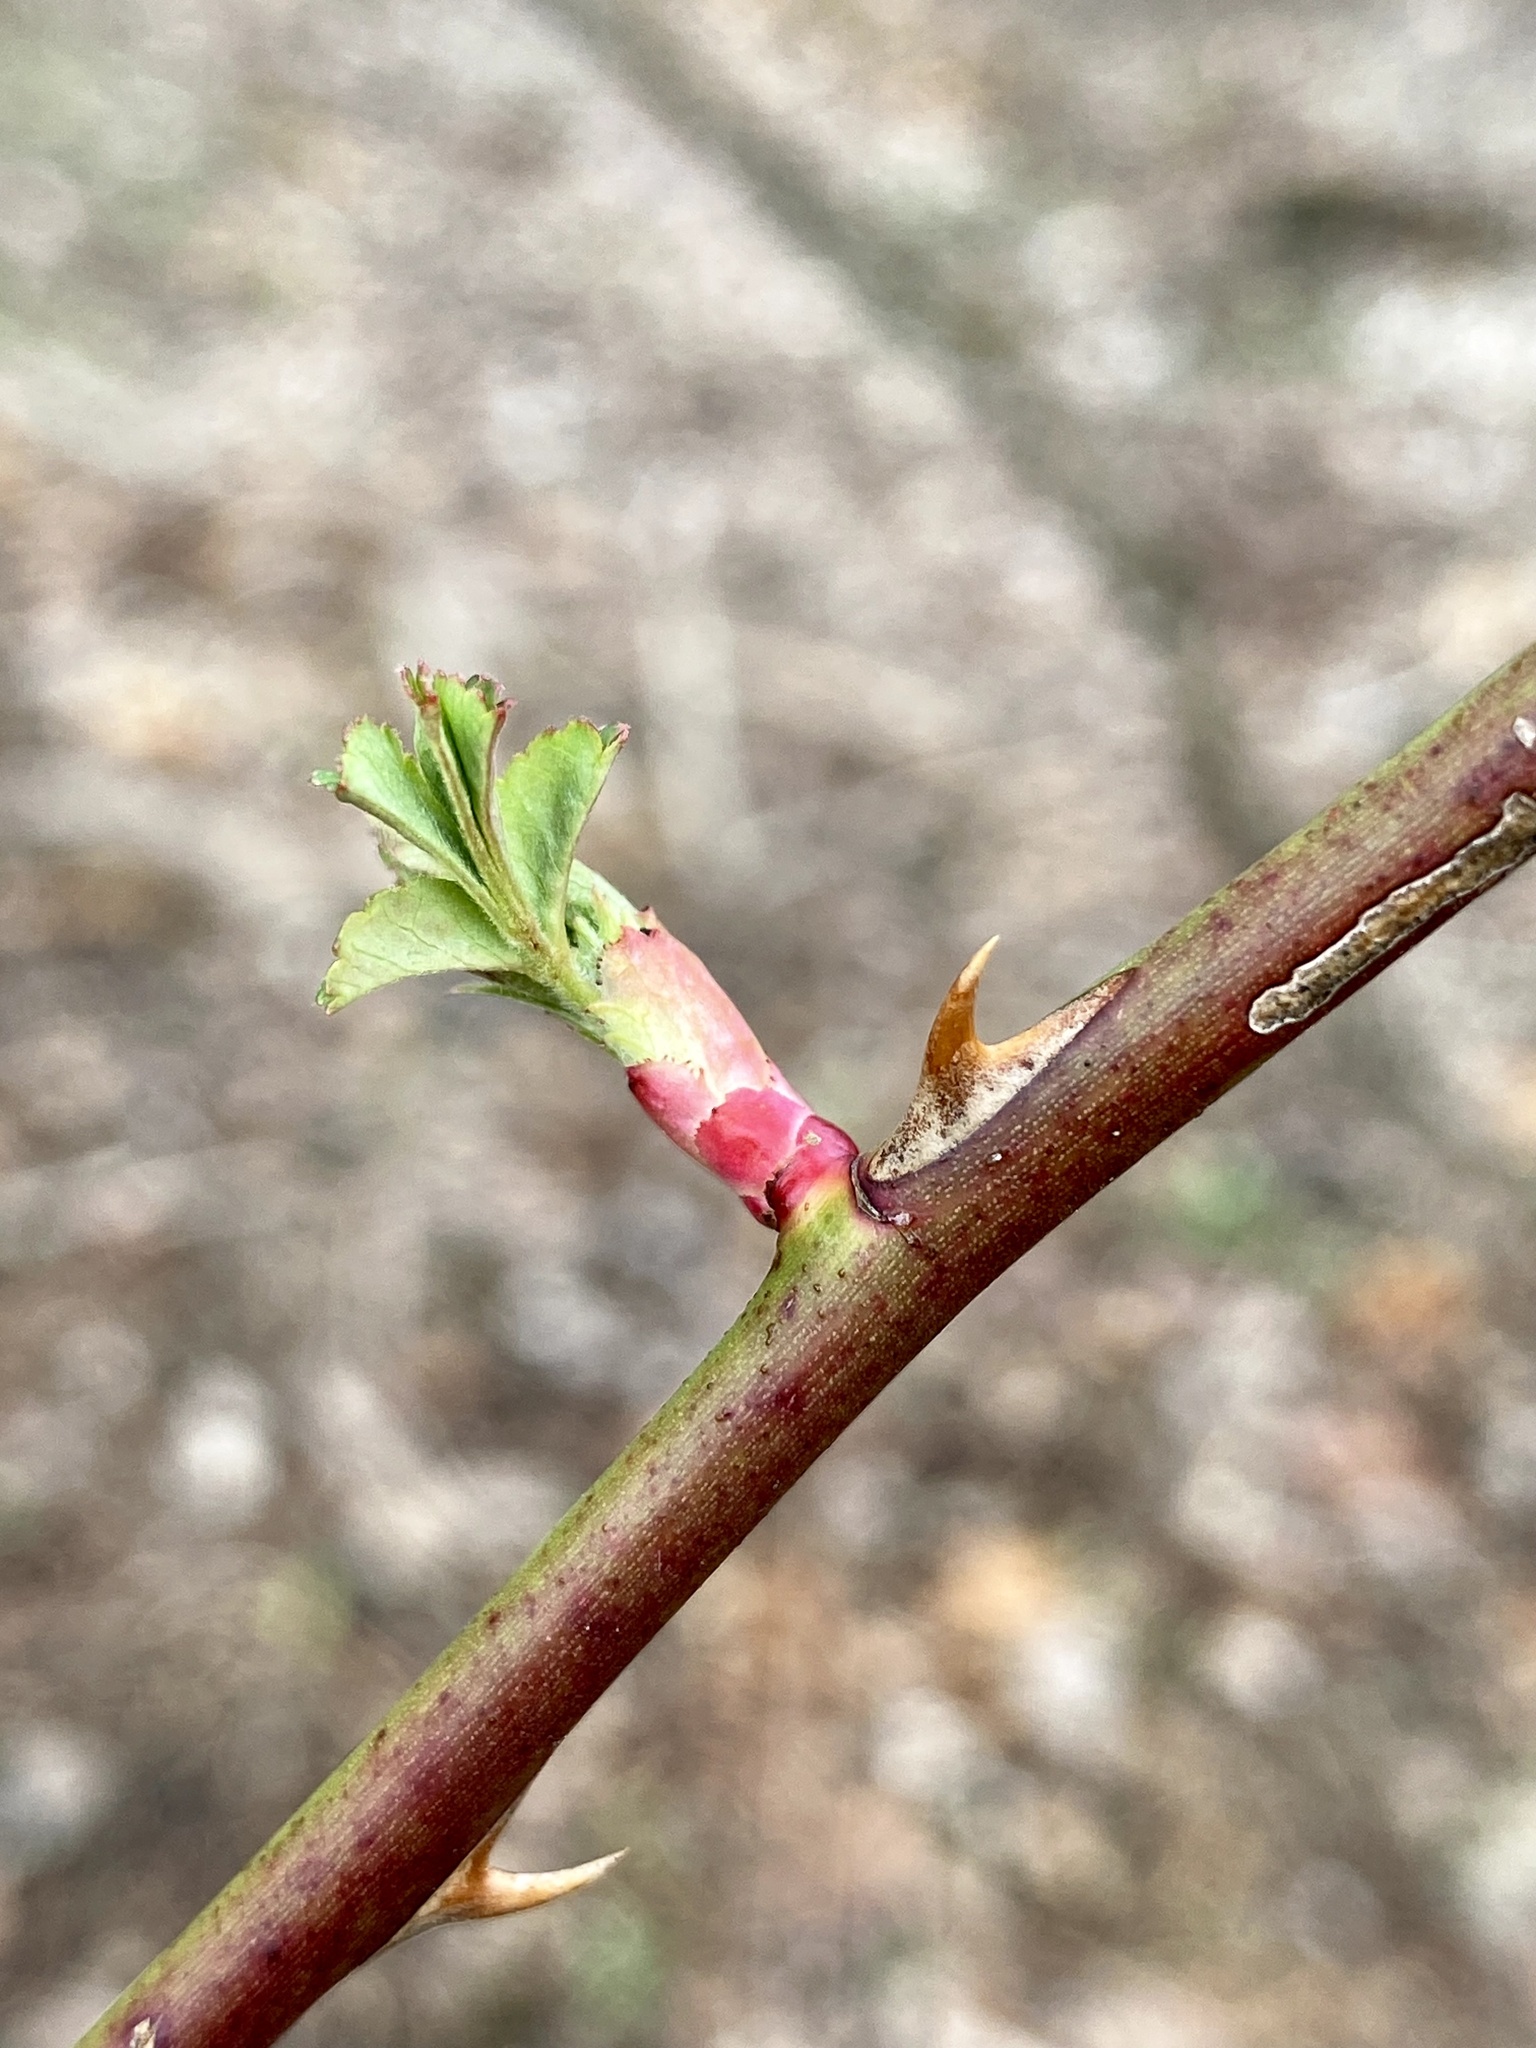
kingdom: Plantae
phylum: Tracheophyta
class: Magnoliopsida
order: Rosales
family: Rosaceae
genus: Rosa
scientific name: Rosa multiflora
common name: Multiflora rose
